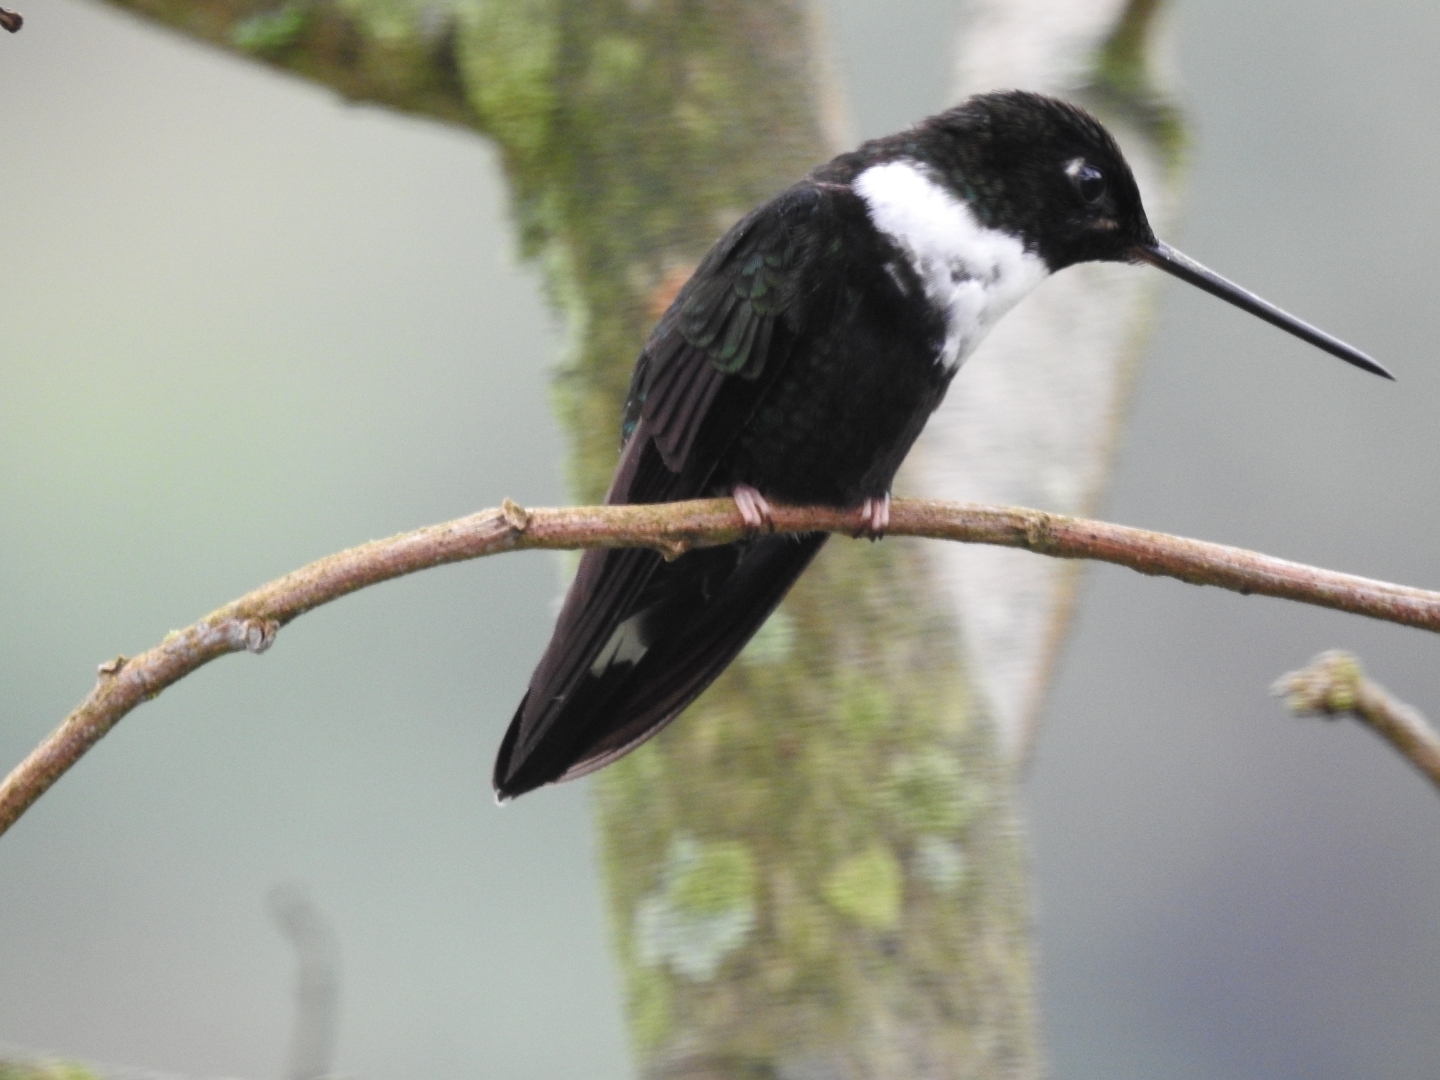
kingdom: Animalia
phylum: Chordata
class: Aves
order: Apodiformes
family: Trochilidae
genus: Coeligena
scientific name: Coeligena torquata
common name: Collared inca
